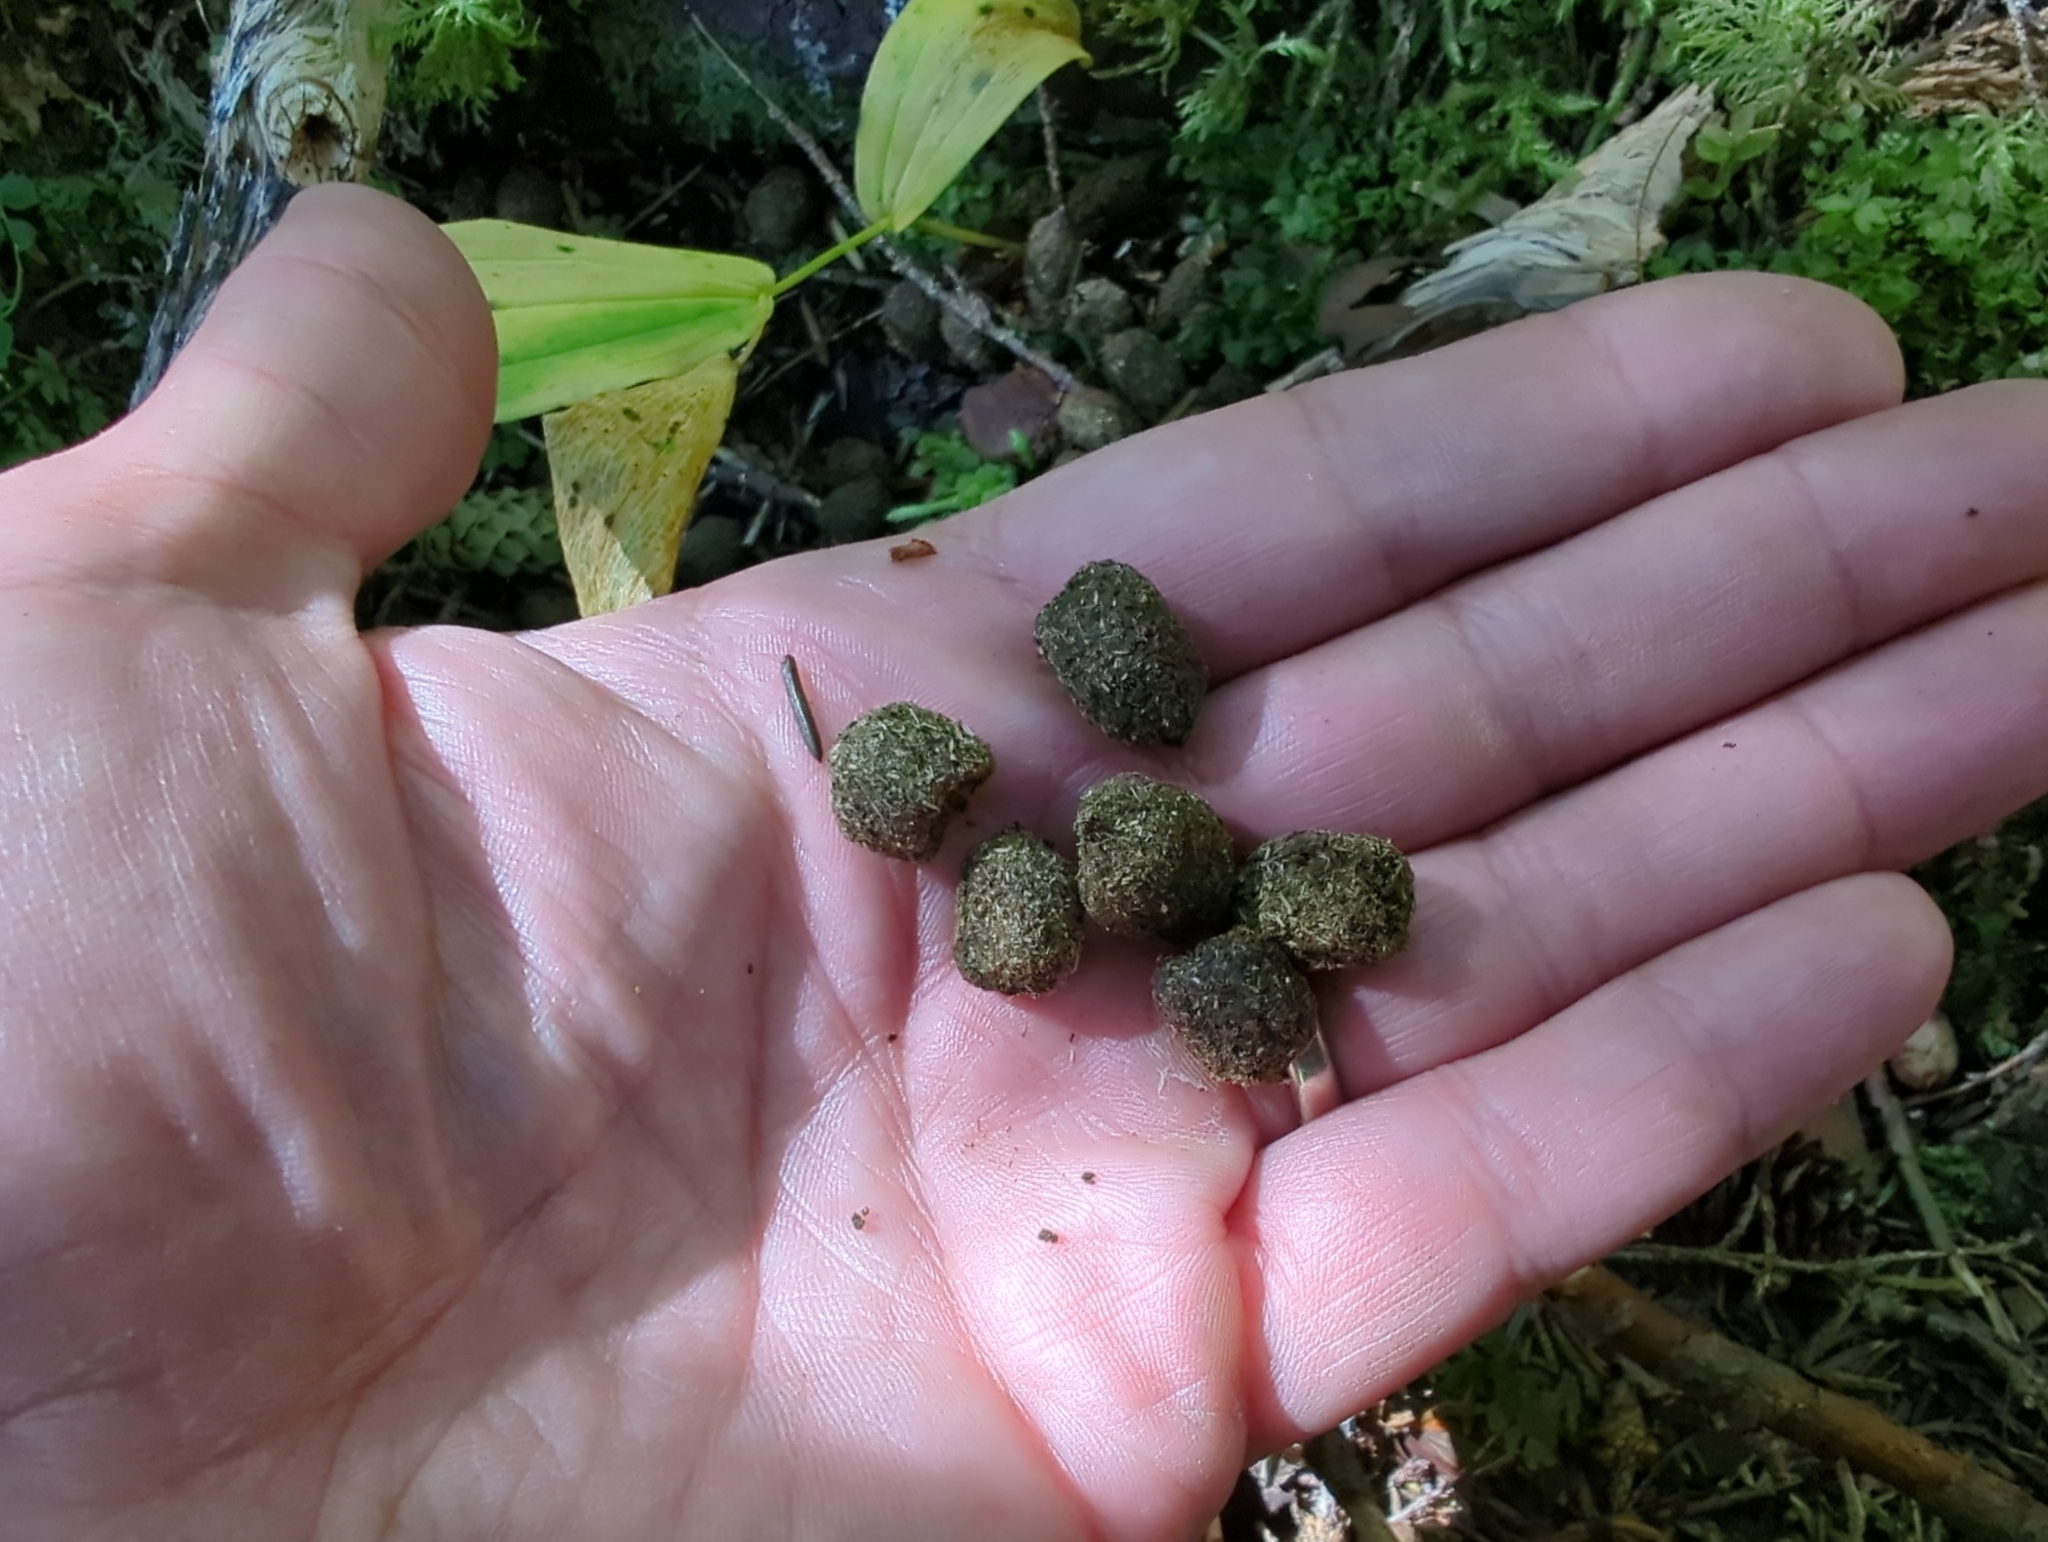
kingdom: Animalia
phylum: Chordata
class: Mammalia
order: Artiodactyla
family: Cervidae
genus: Odocoileus
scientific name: Odocoileus hemionus
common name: Mule deer
